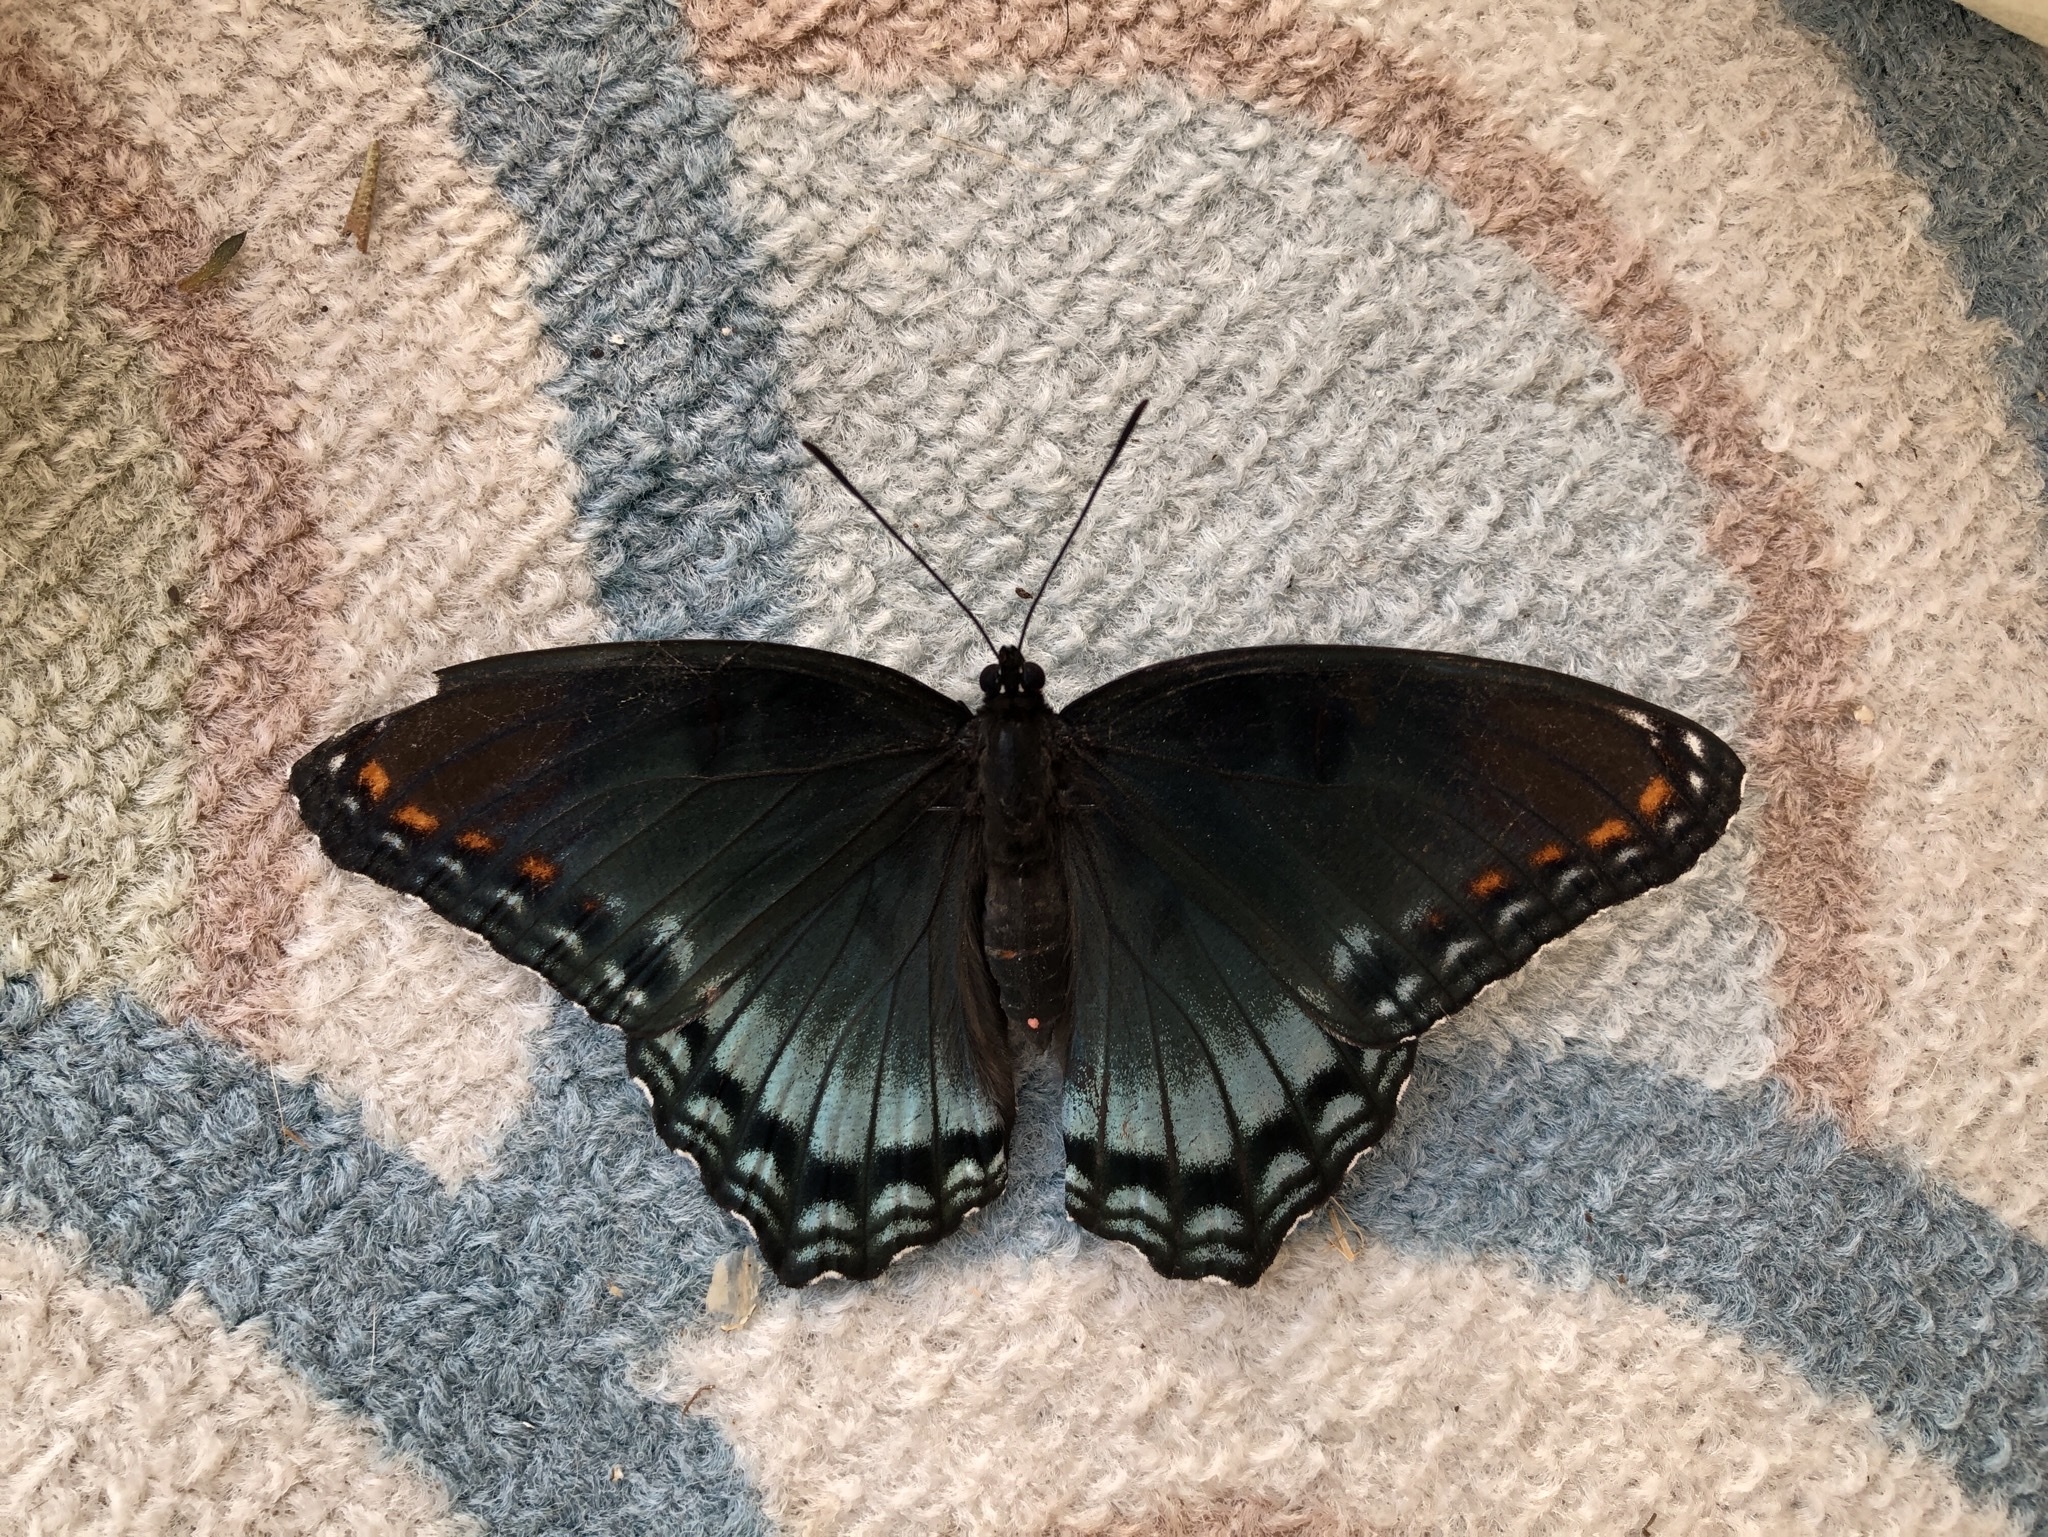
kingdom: Animalia
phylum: Arthropoda
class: Insecta
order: Lepidoptera
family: Nymphalidae
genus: Limenitis
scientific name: Limenitis astyanax
